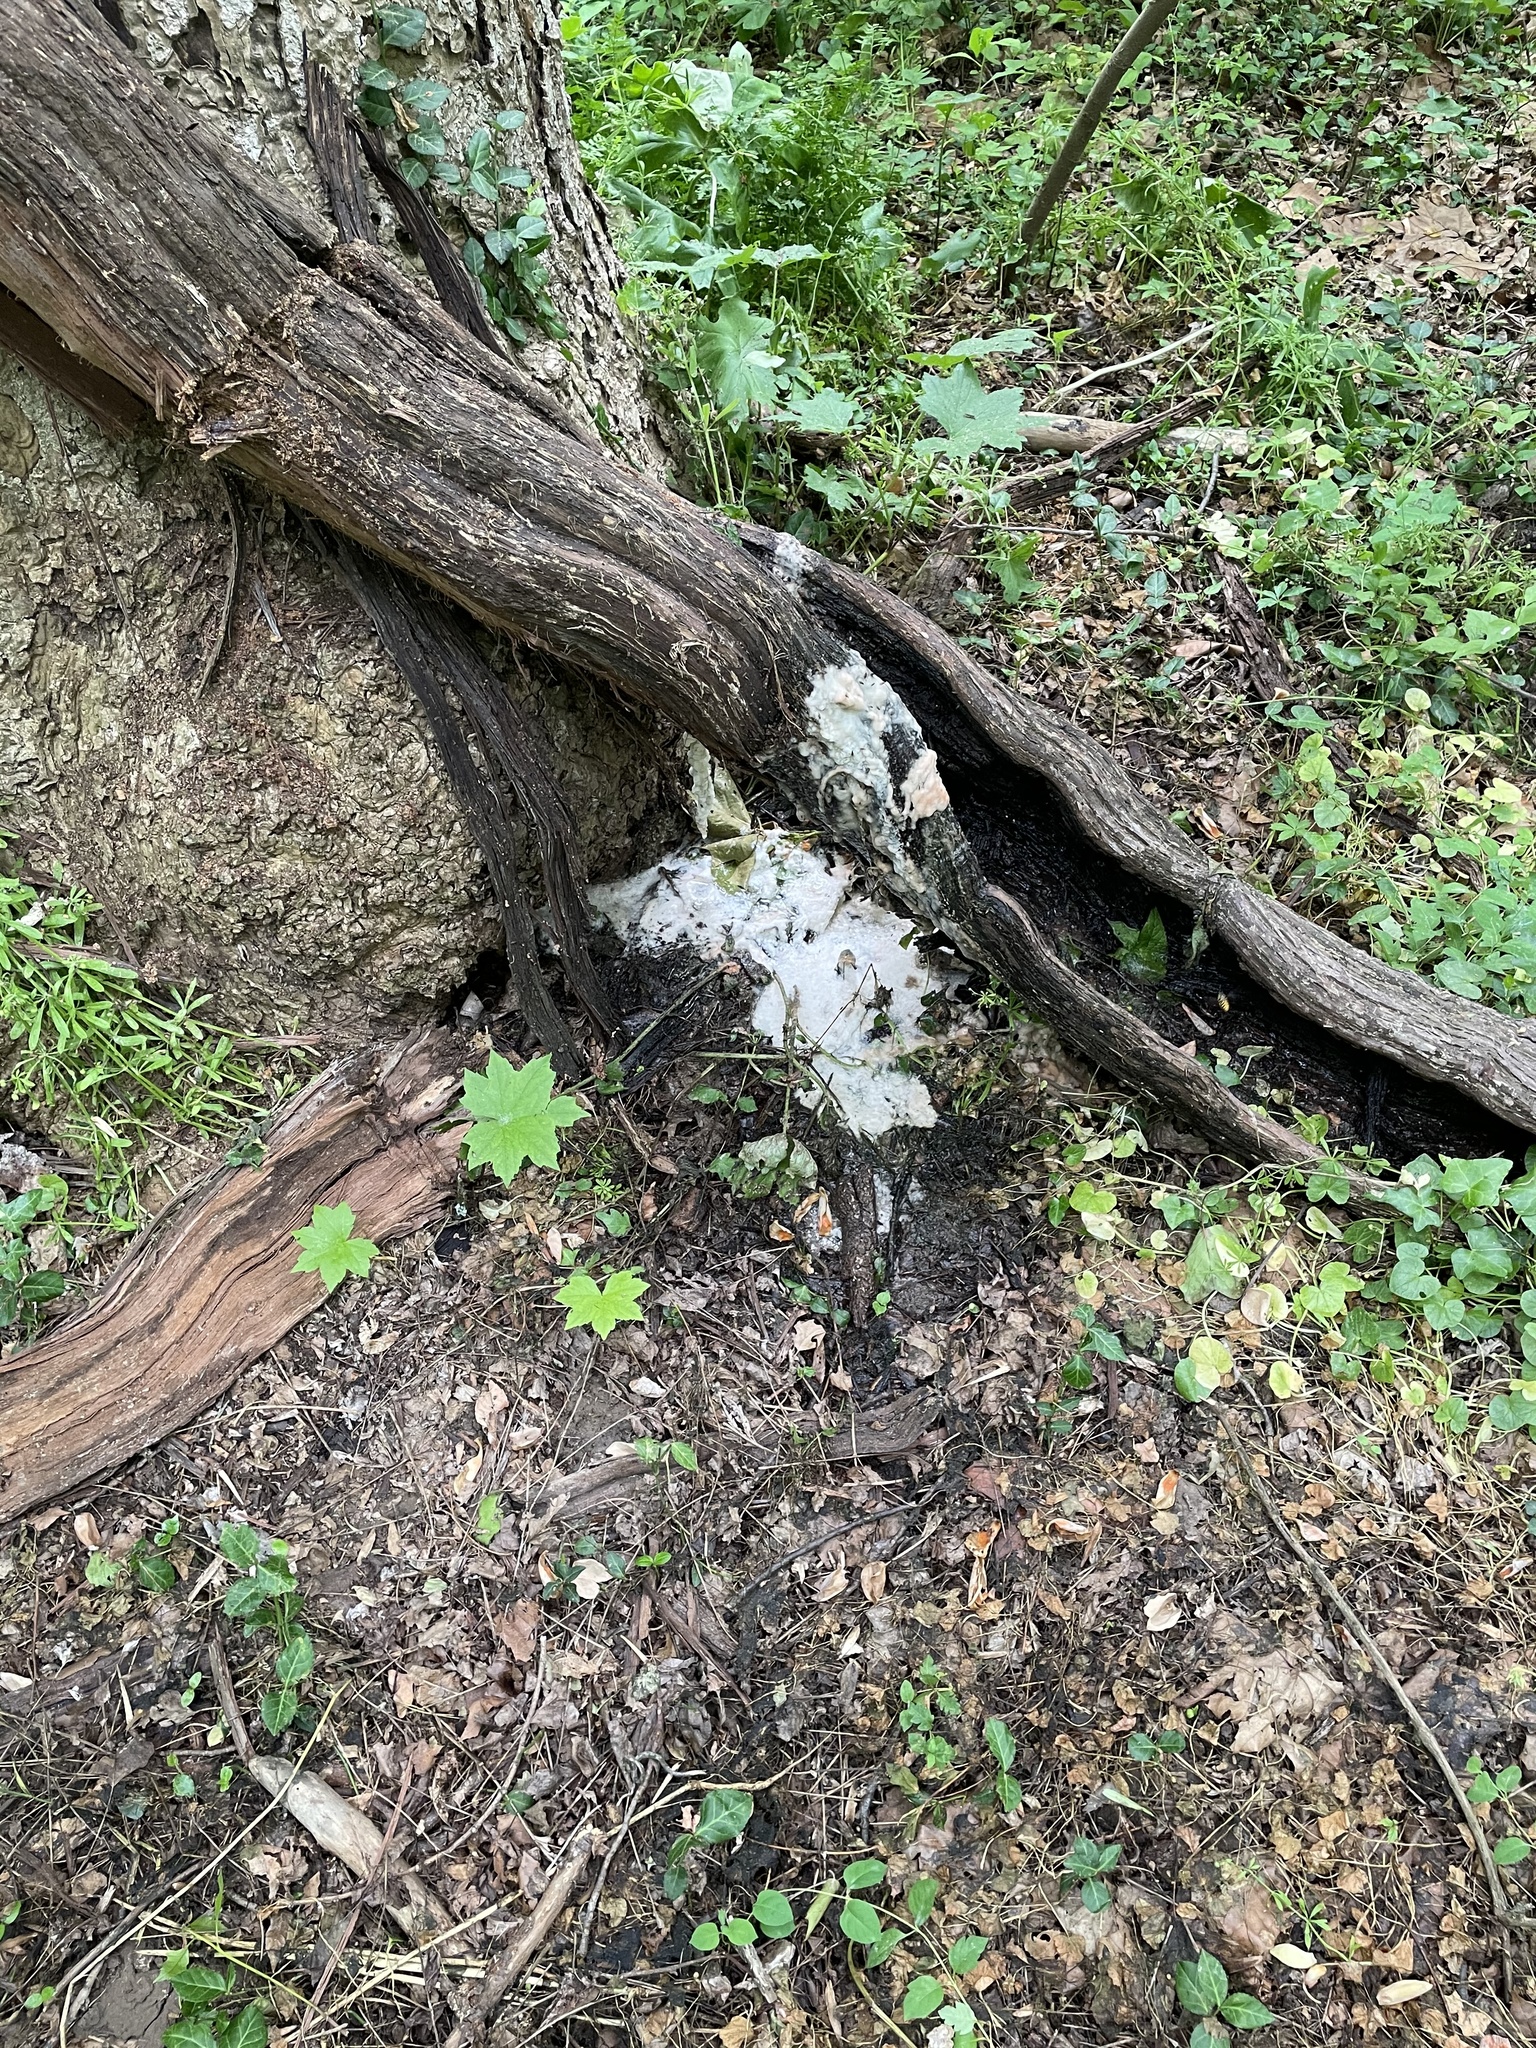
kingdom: Fungi
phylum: Ascomycota
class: Sordariomycetes
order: Hypocreales
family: Nectriaceae
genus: Fusicolla
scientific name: Fusicolla merismoides
